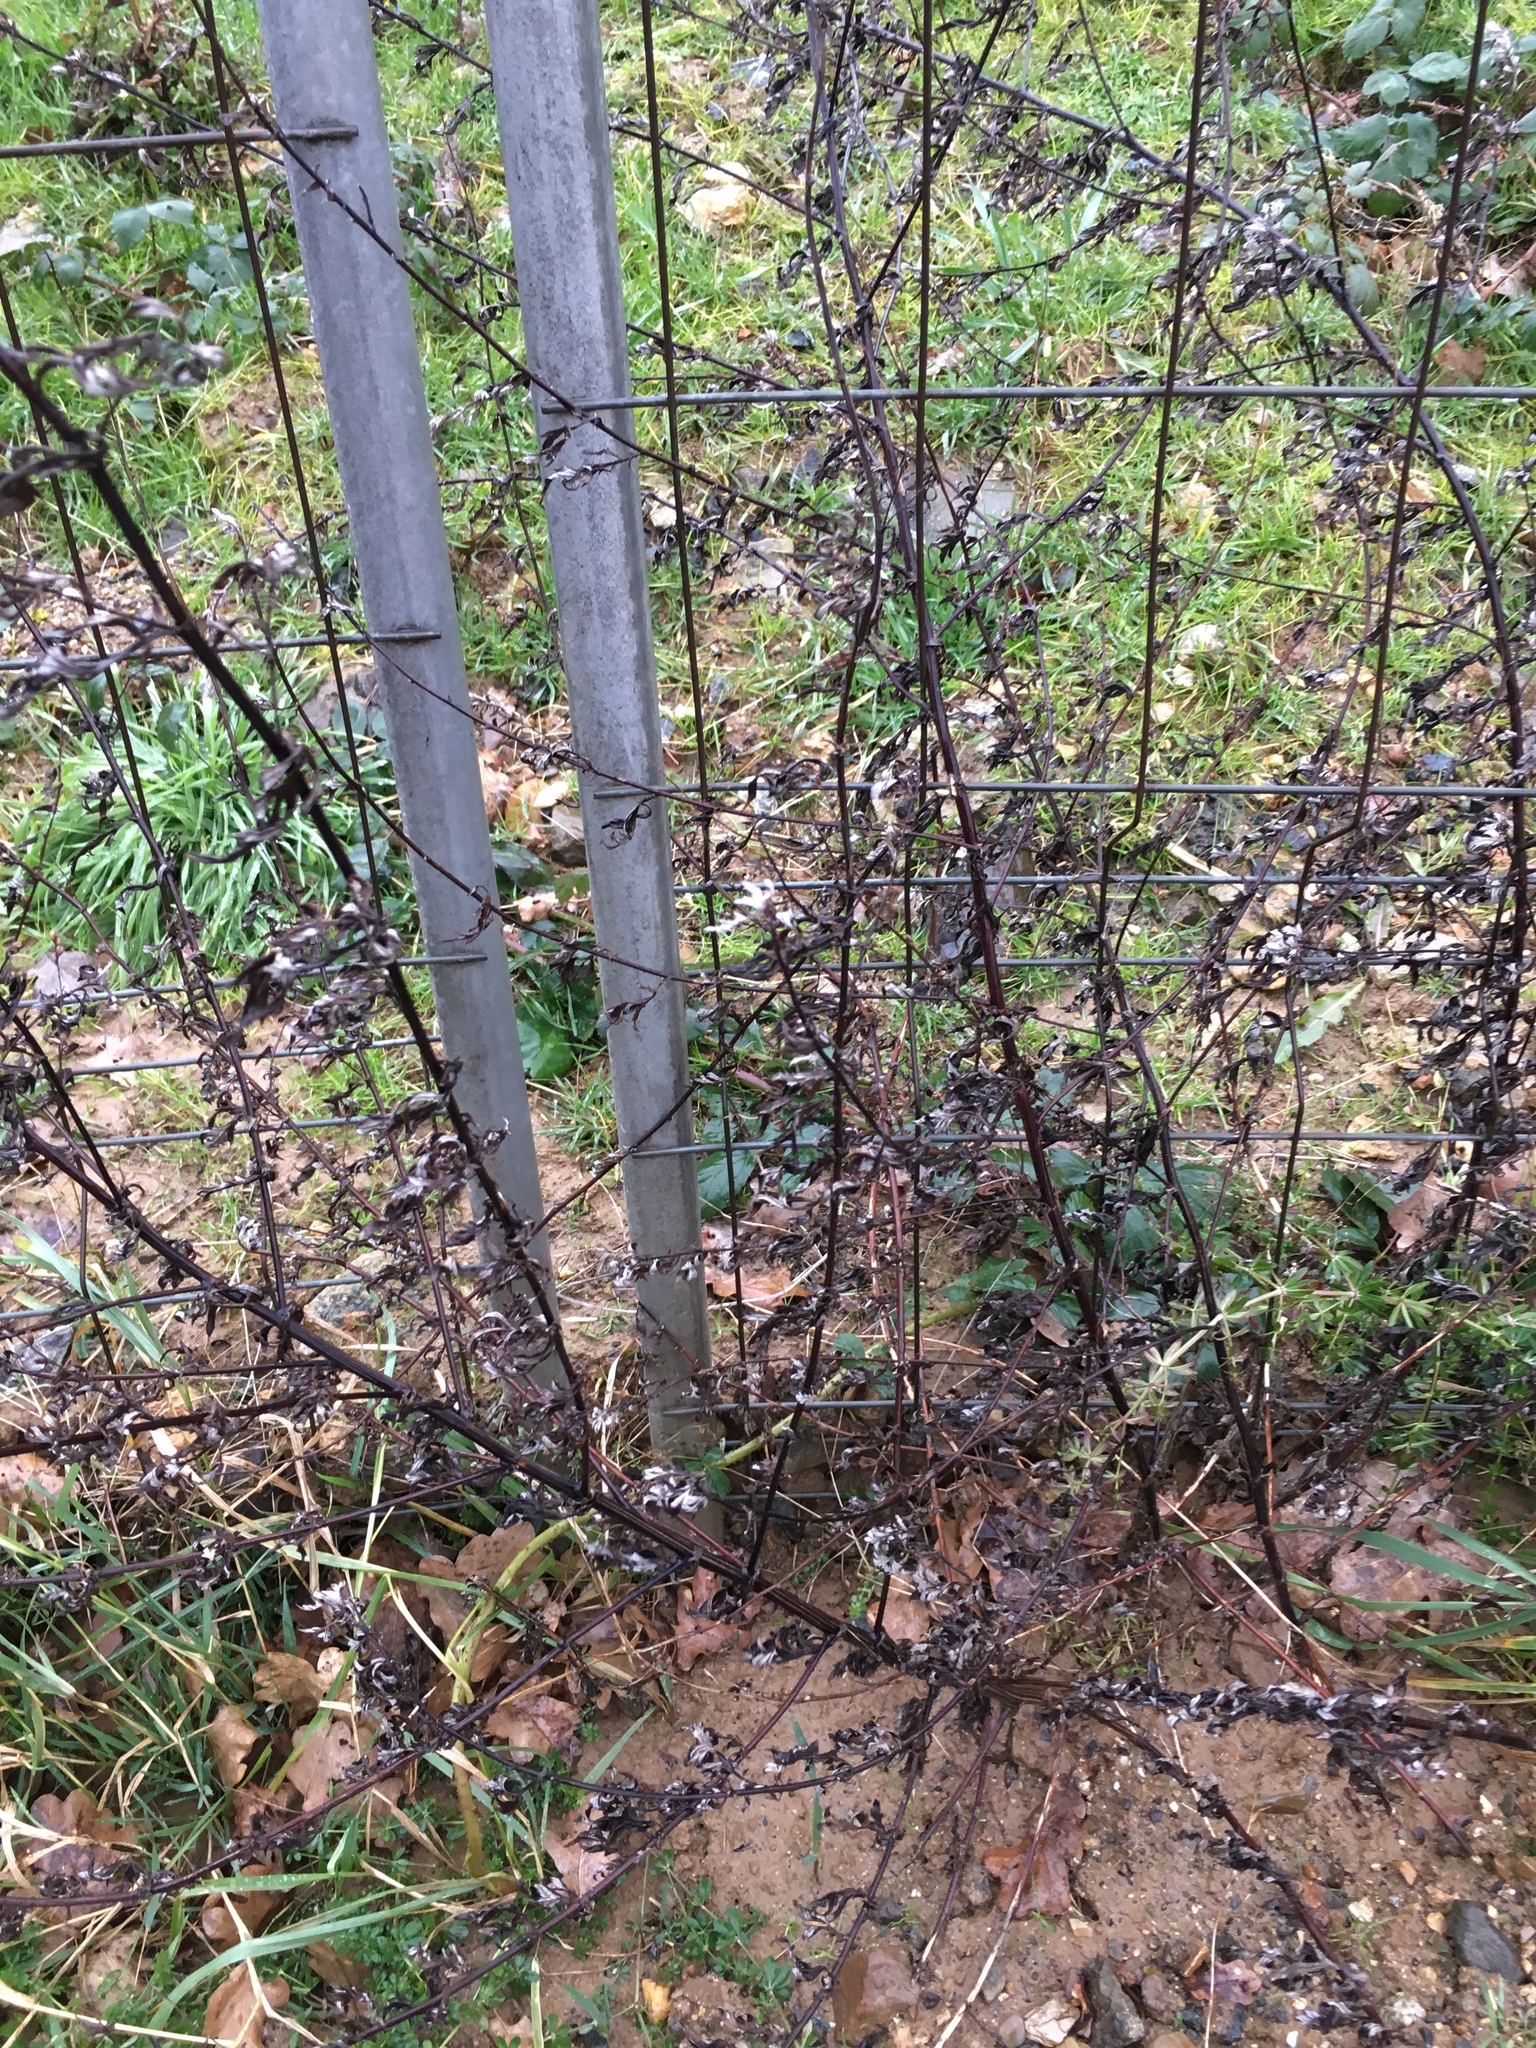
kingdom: Plantae
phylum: Tracheophyta
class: Magnoliopsida
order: Asterales
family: Asteraceae
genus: Artemisia
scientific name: Artemisia vulgaris
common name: Mugwort
